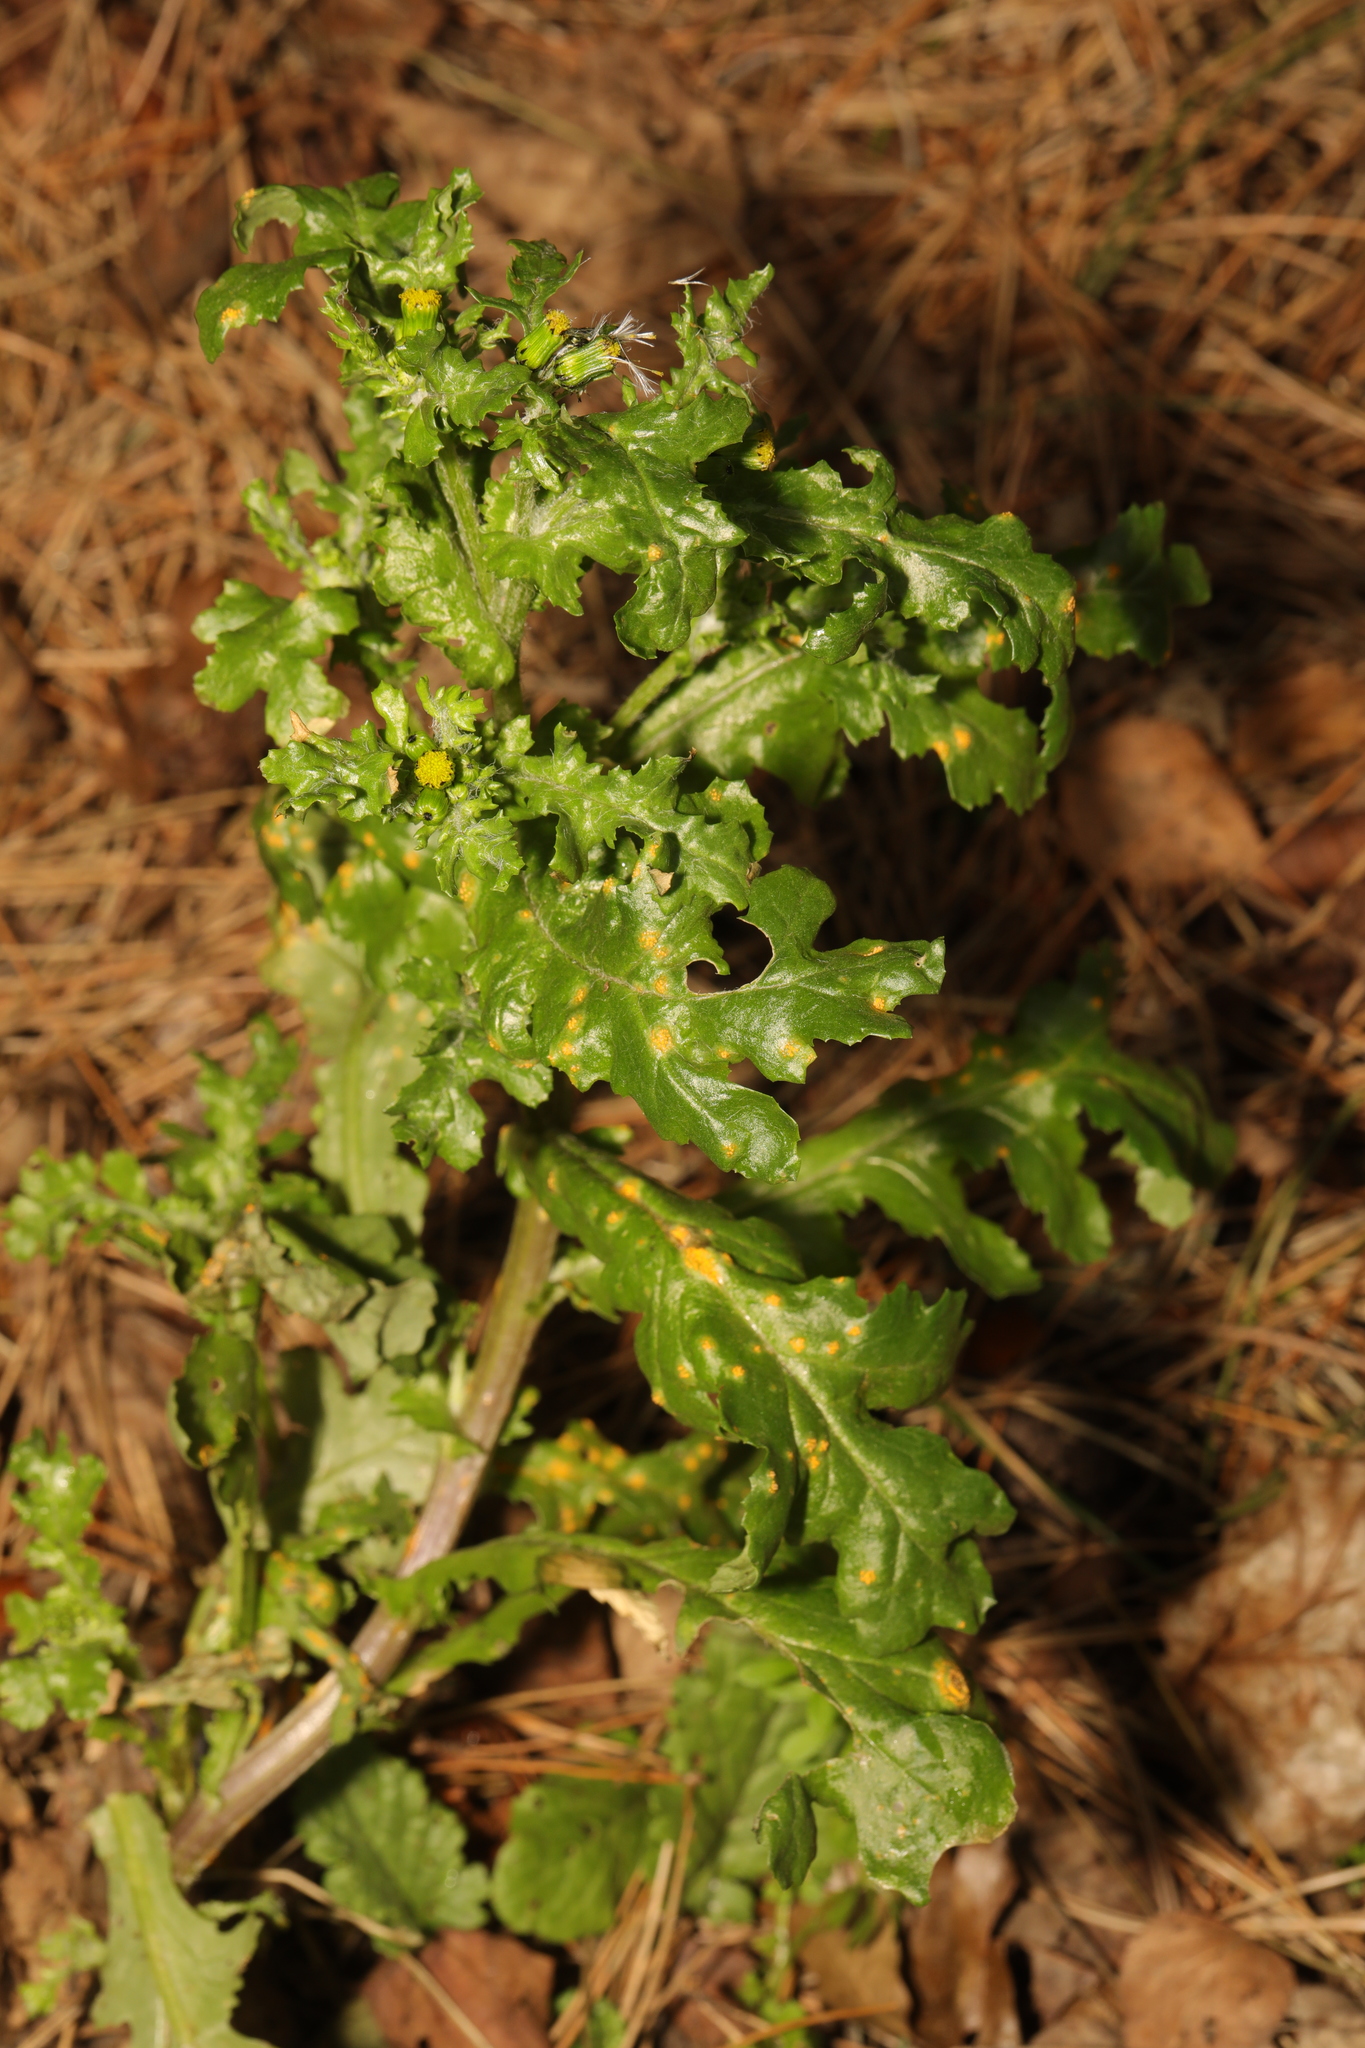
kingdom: Plantae
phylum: Tracheophyta
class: Magnoliopsida
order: Asterales
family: Asteraceae
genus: Senecio
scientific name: Senecio vulgaris
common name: Old-man-in-the-spring
